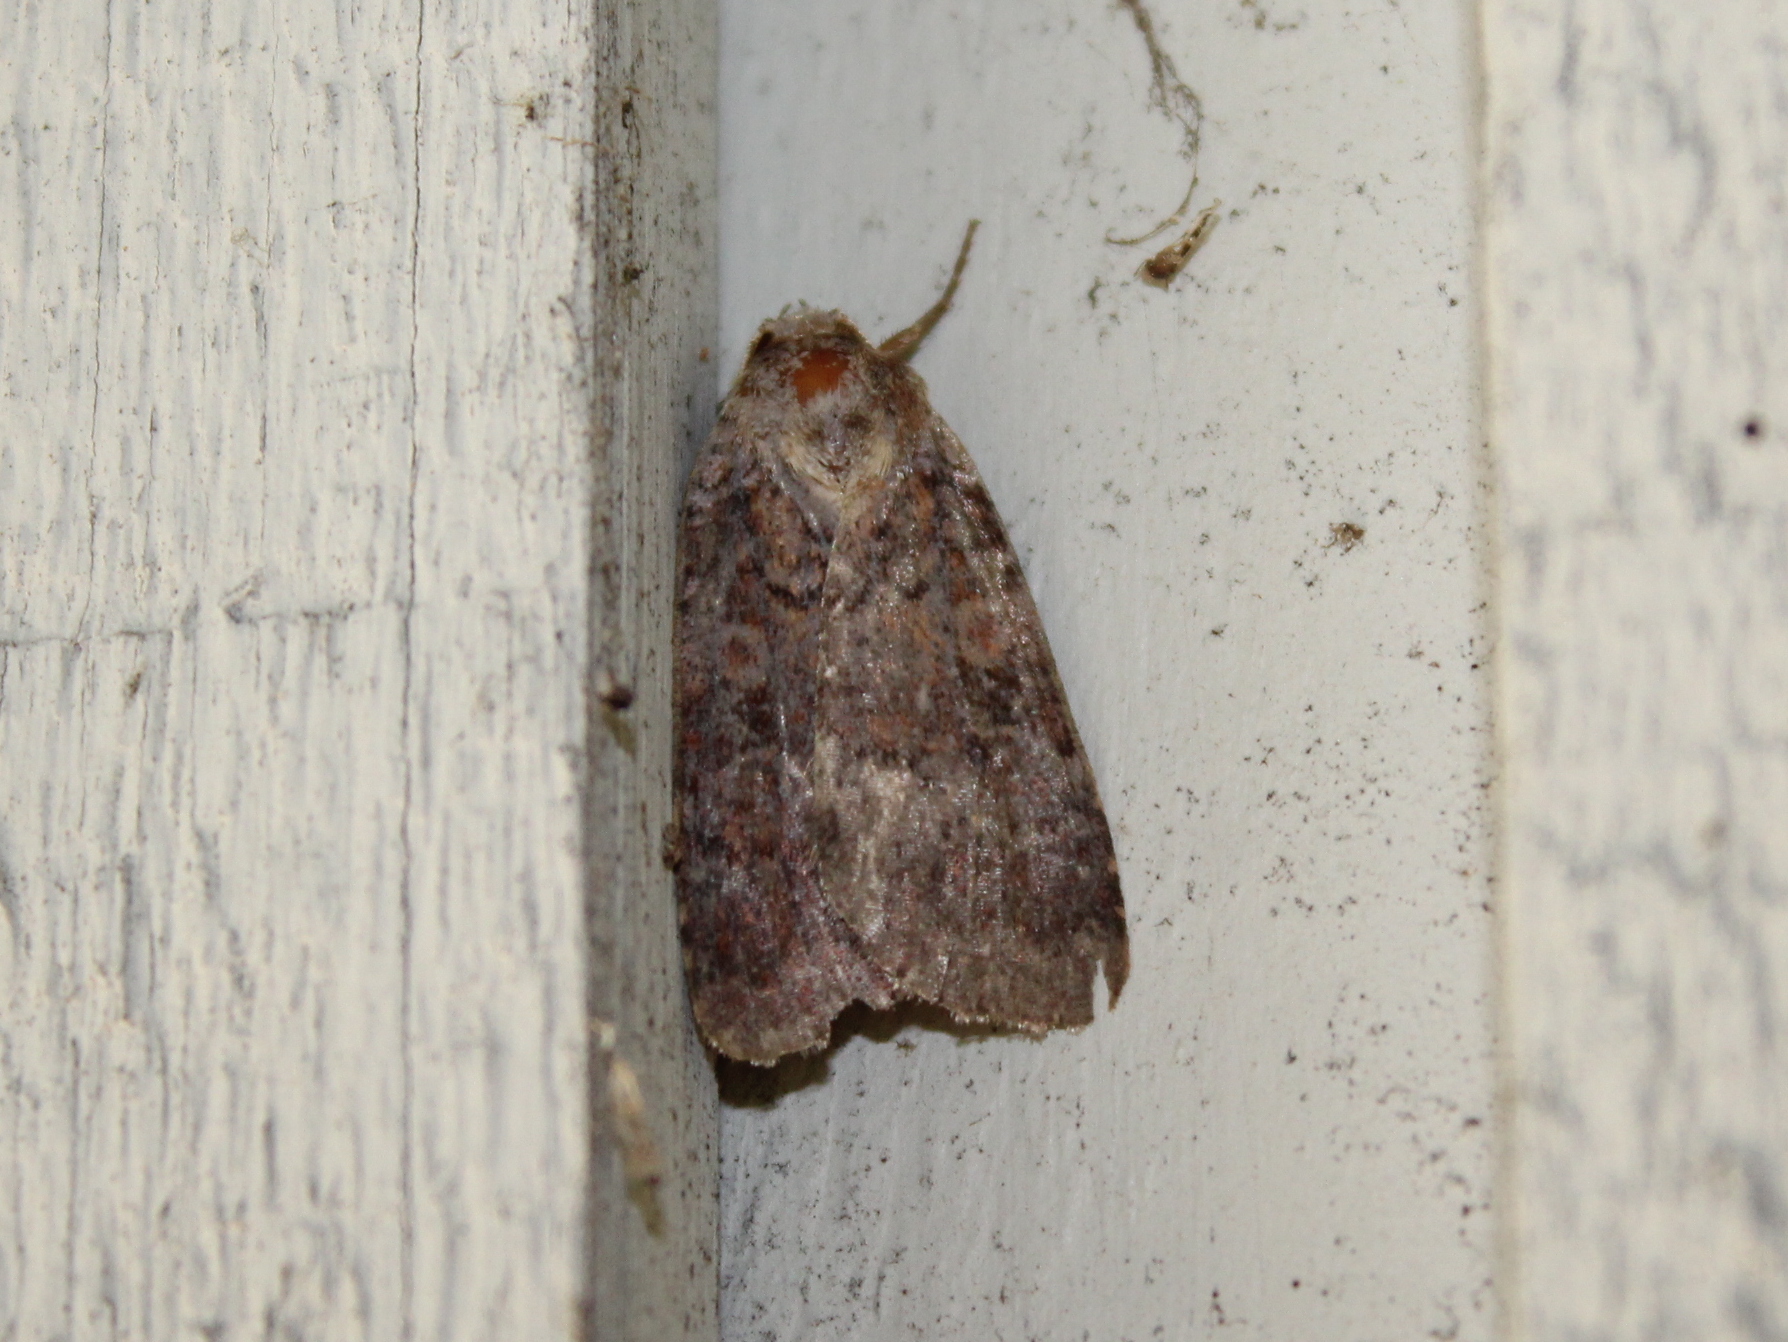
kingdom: Animalia
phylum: Arthropoda
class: Insecta
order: Lepidoptera
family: Noctuidae
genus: Lycophotia
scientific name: Lycophotia phyllophora
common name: Lycophotia moth
